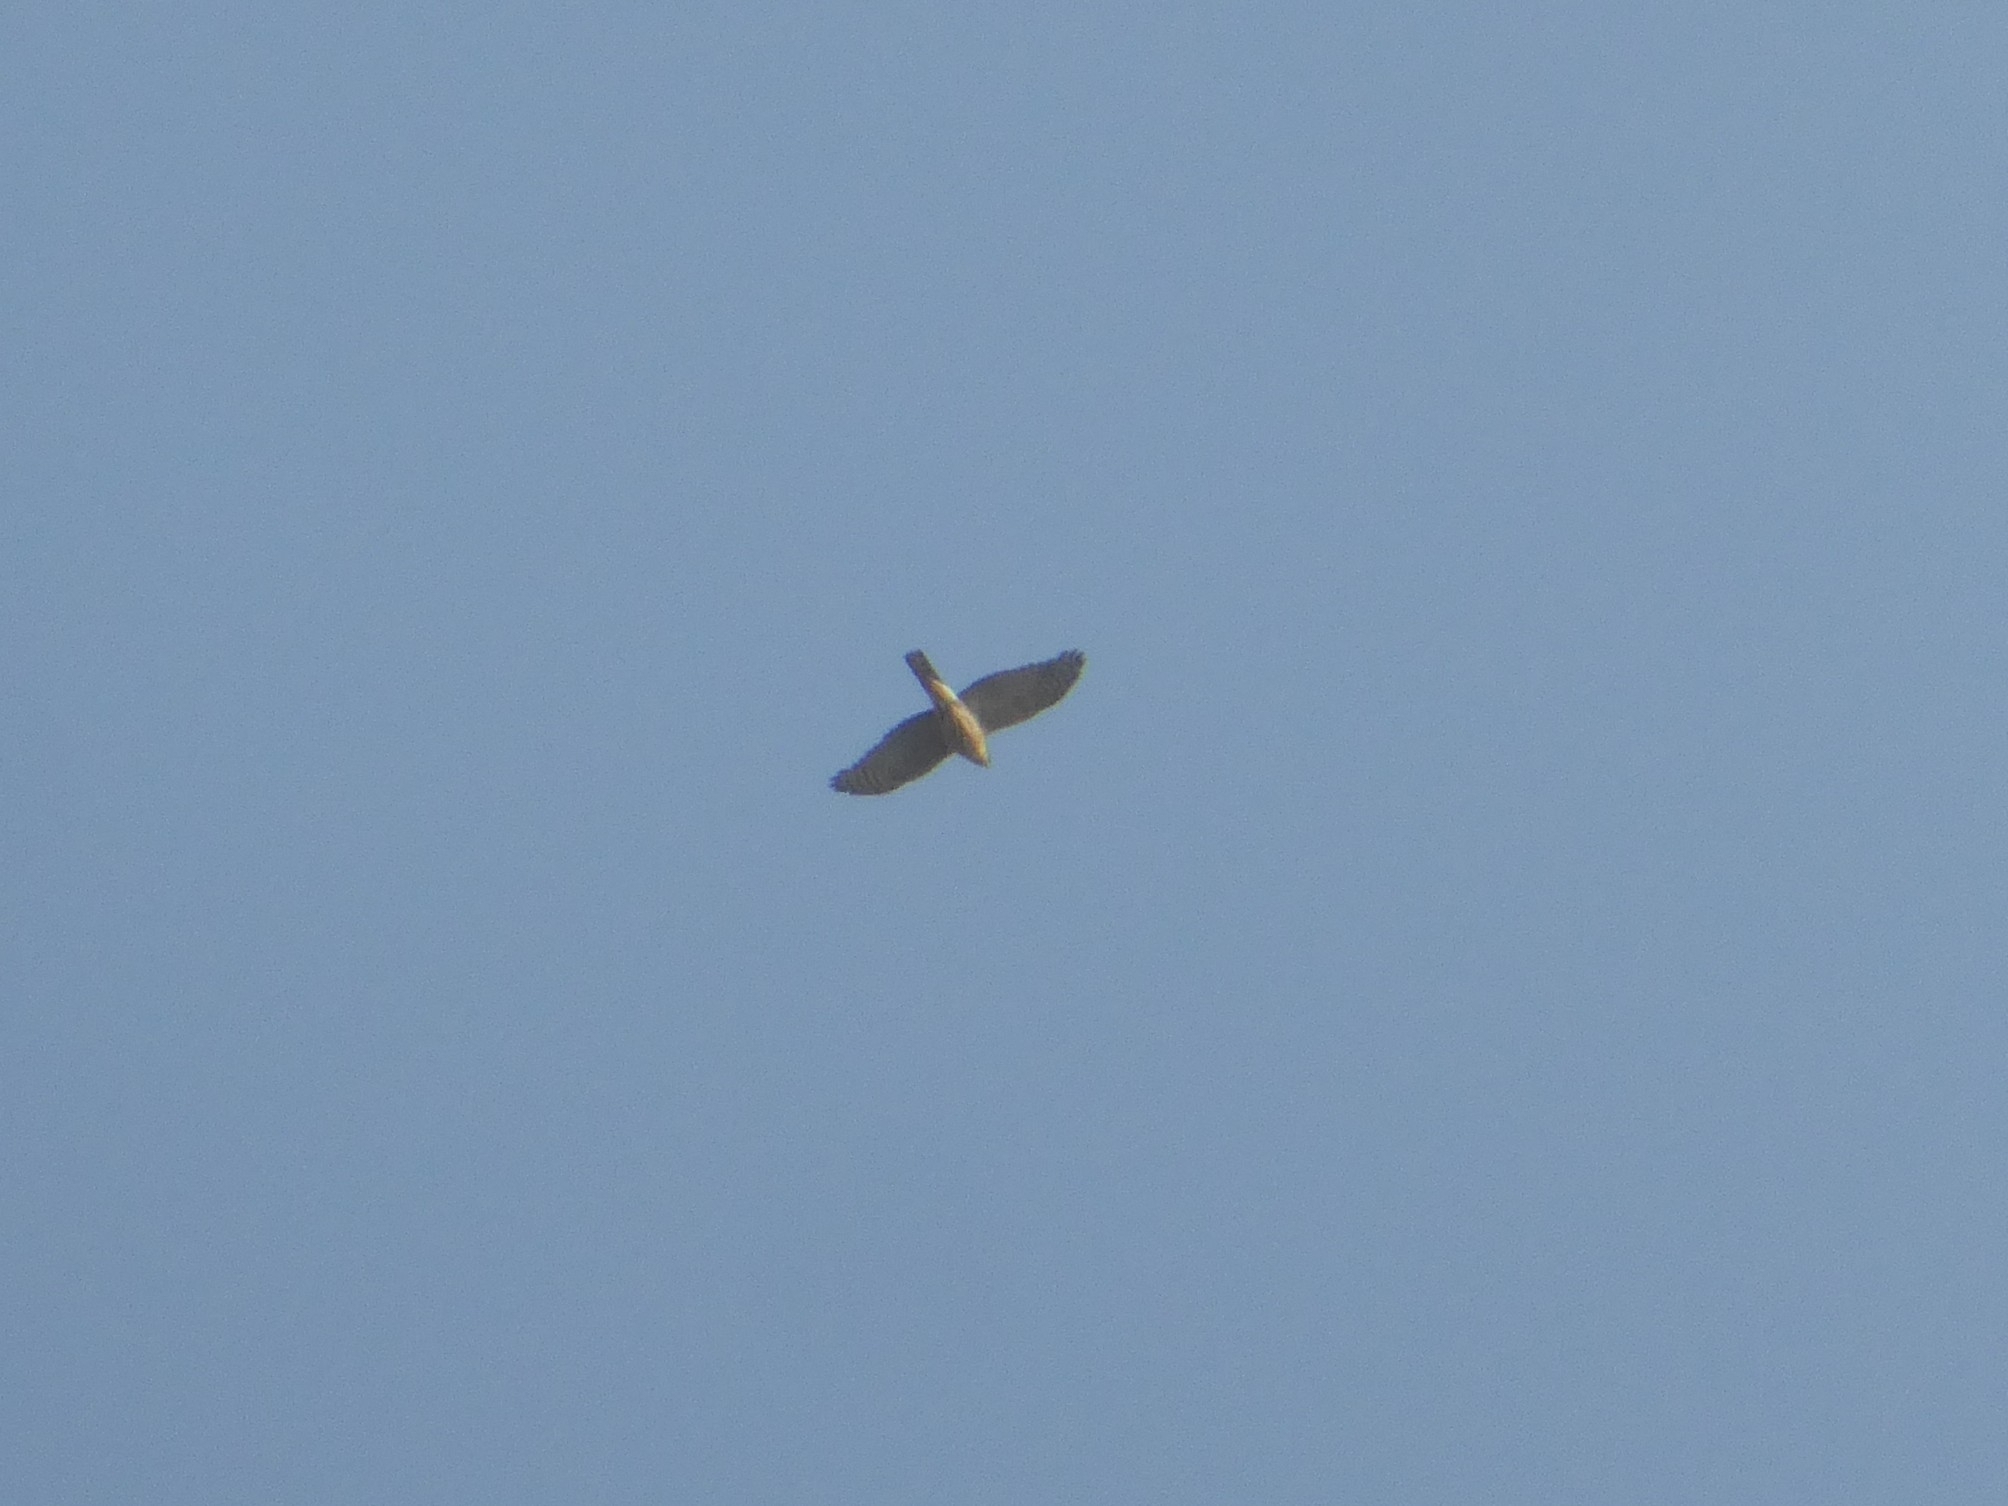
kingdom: Animalia
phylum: Chordata
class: Aves
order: Accipitriformes
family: Accipitridae
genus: Accipiter
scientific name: Accipiter badius
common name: Shikra
